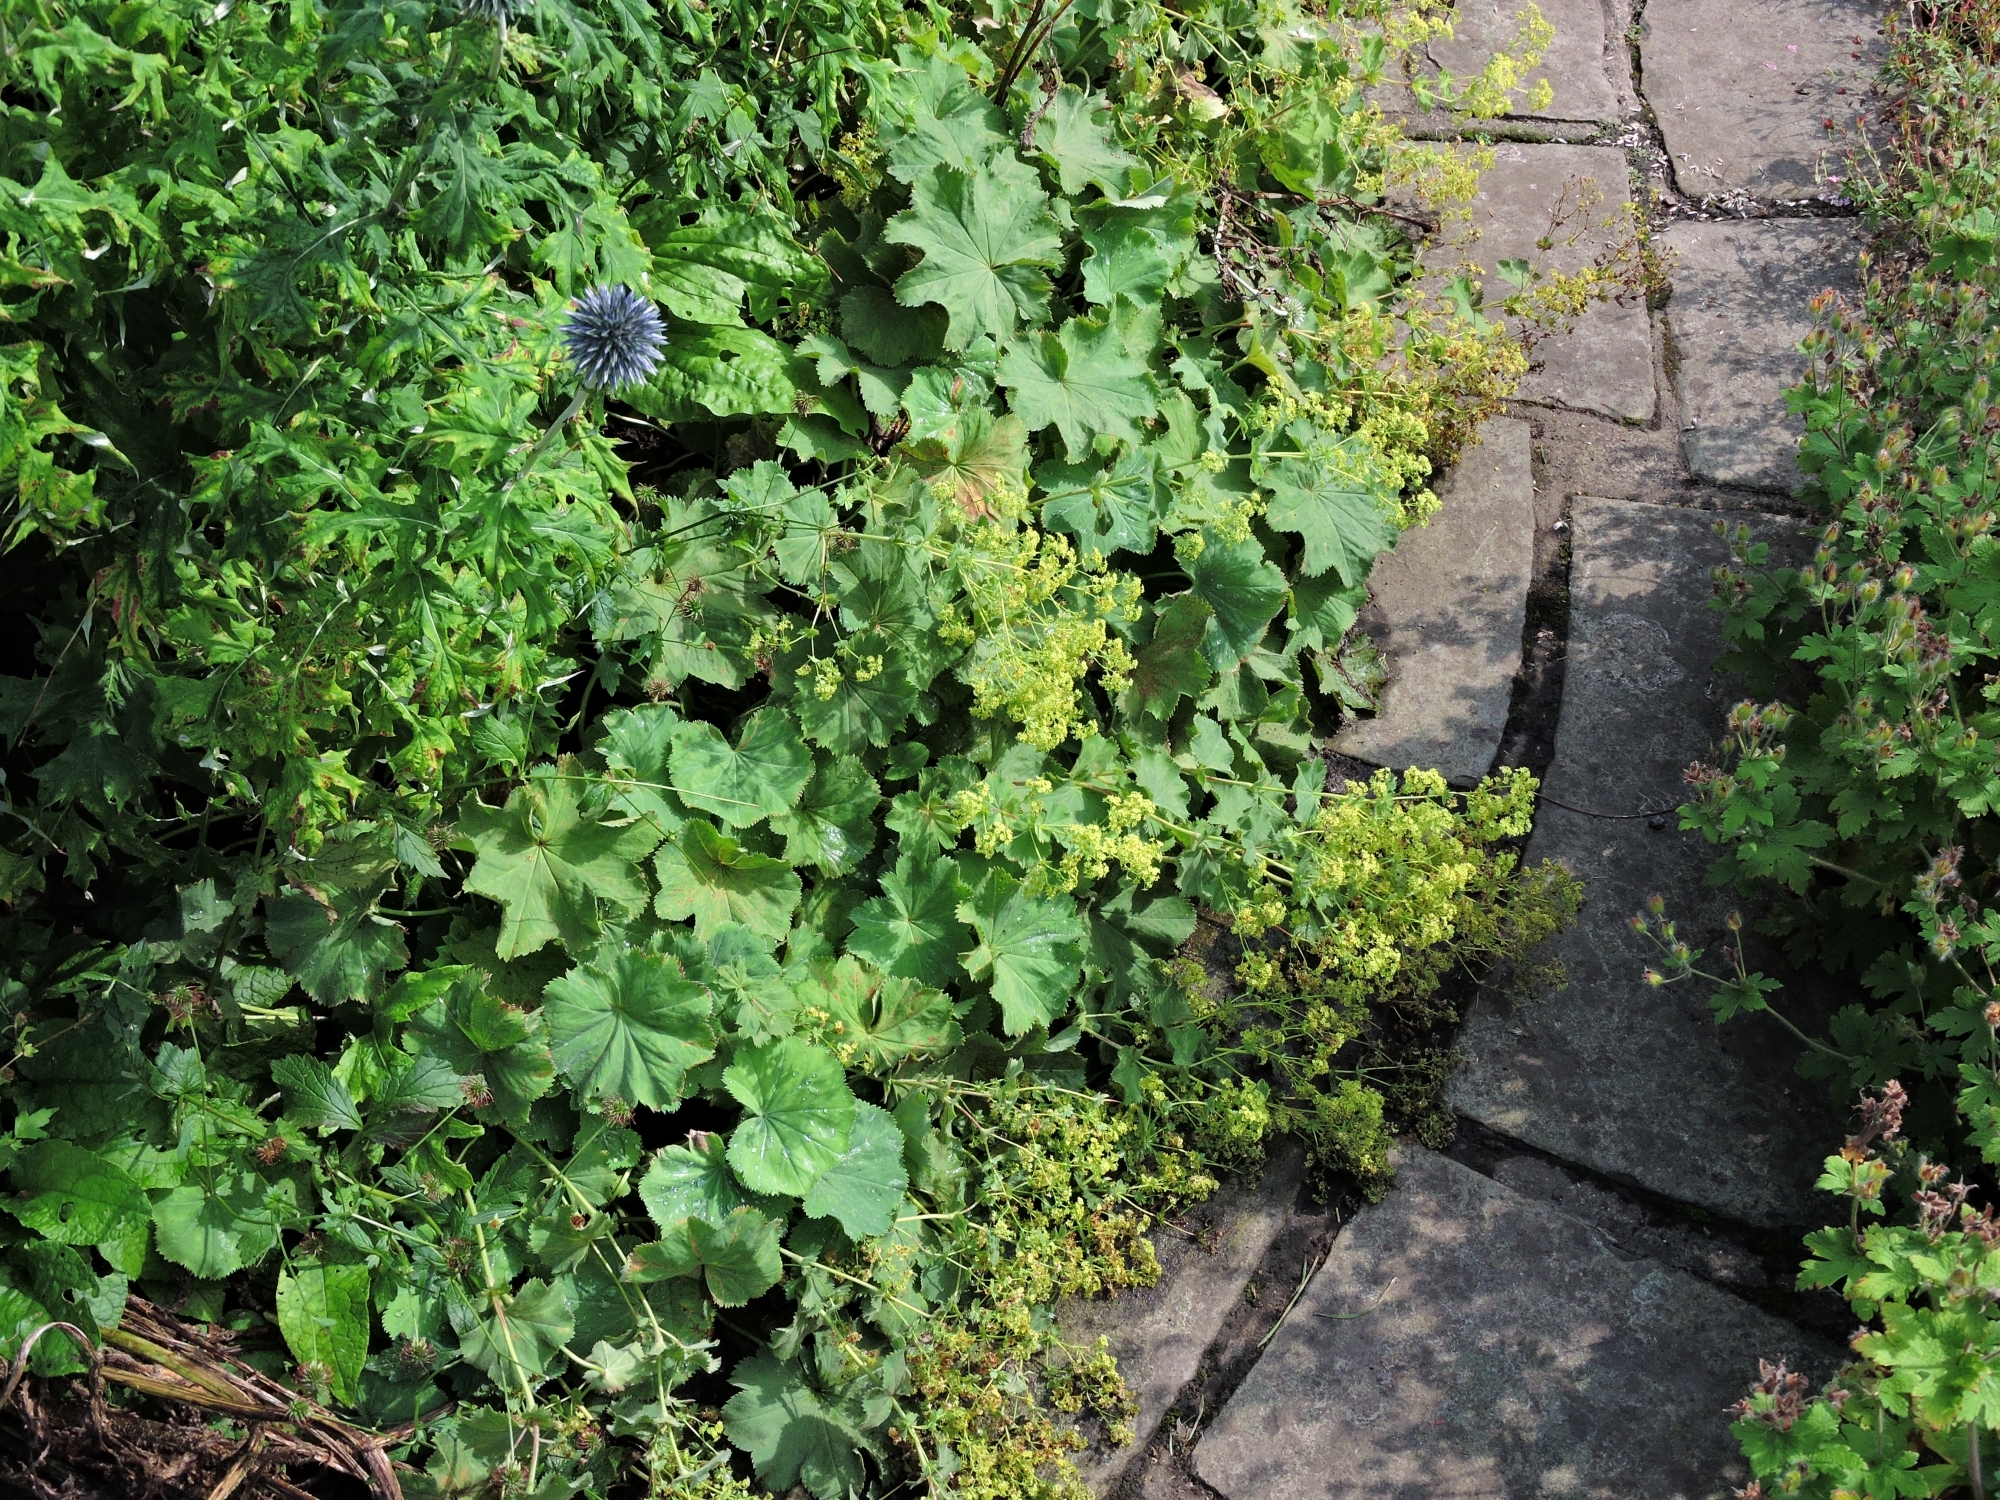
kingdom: Plantae
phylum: Tracheophyta
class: Magnoliopsida
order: Rosales
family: Rosaceae
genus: Alchemilla
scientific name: Alchemilla mollis
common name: Lady's-mantle
